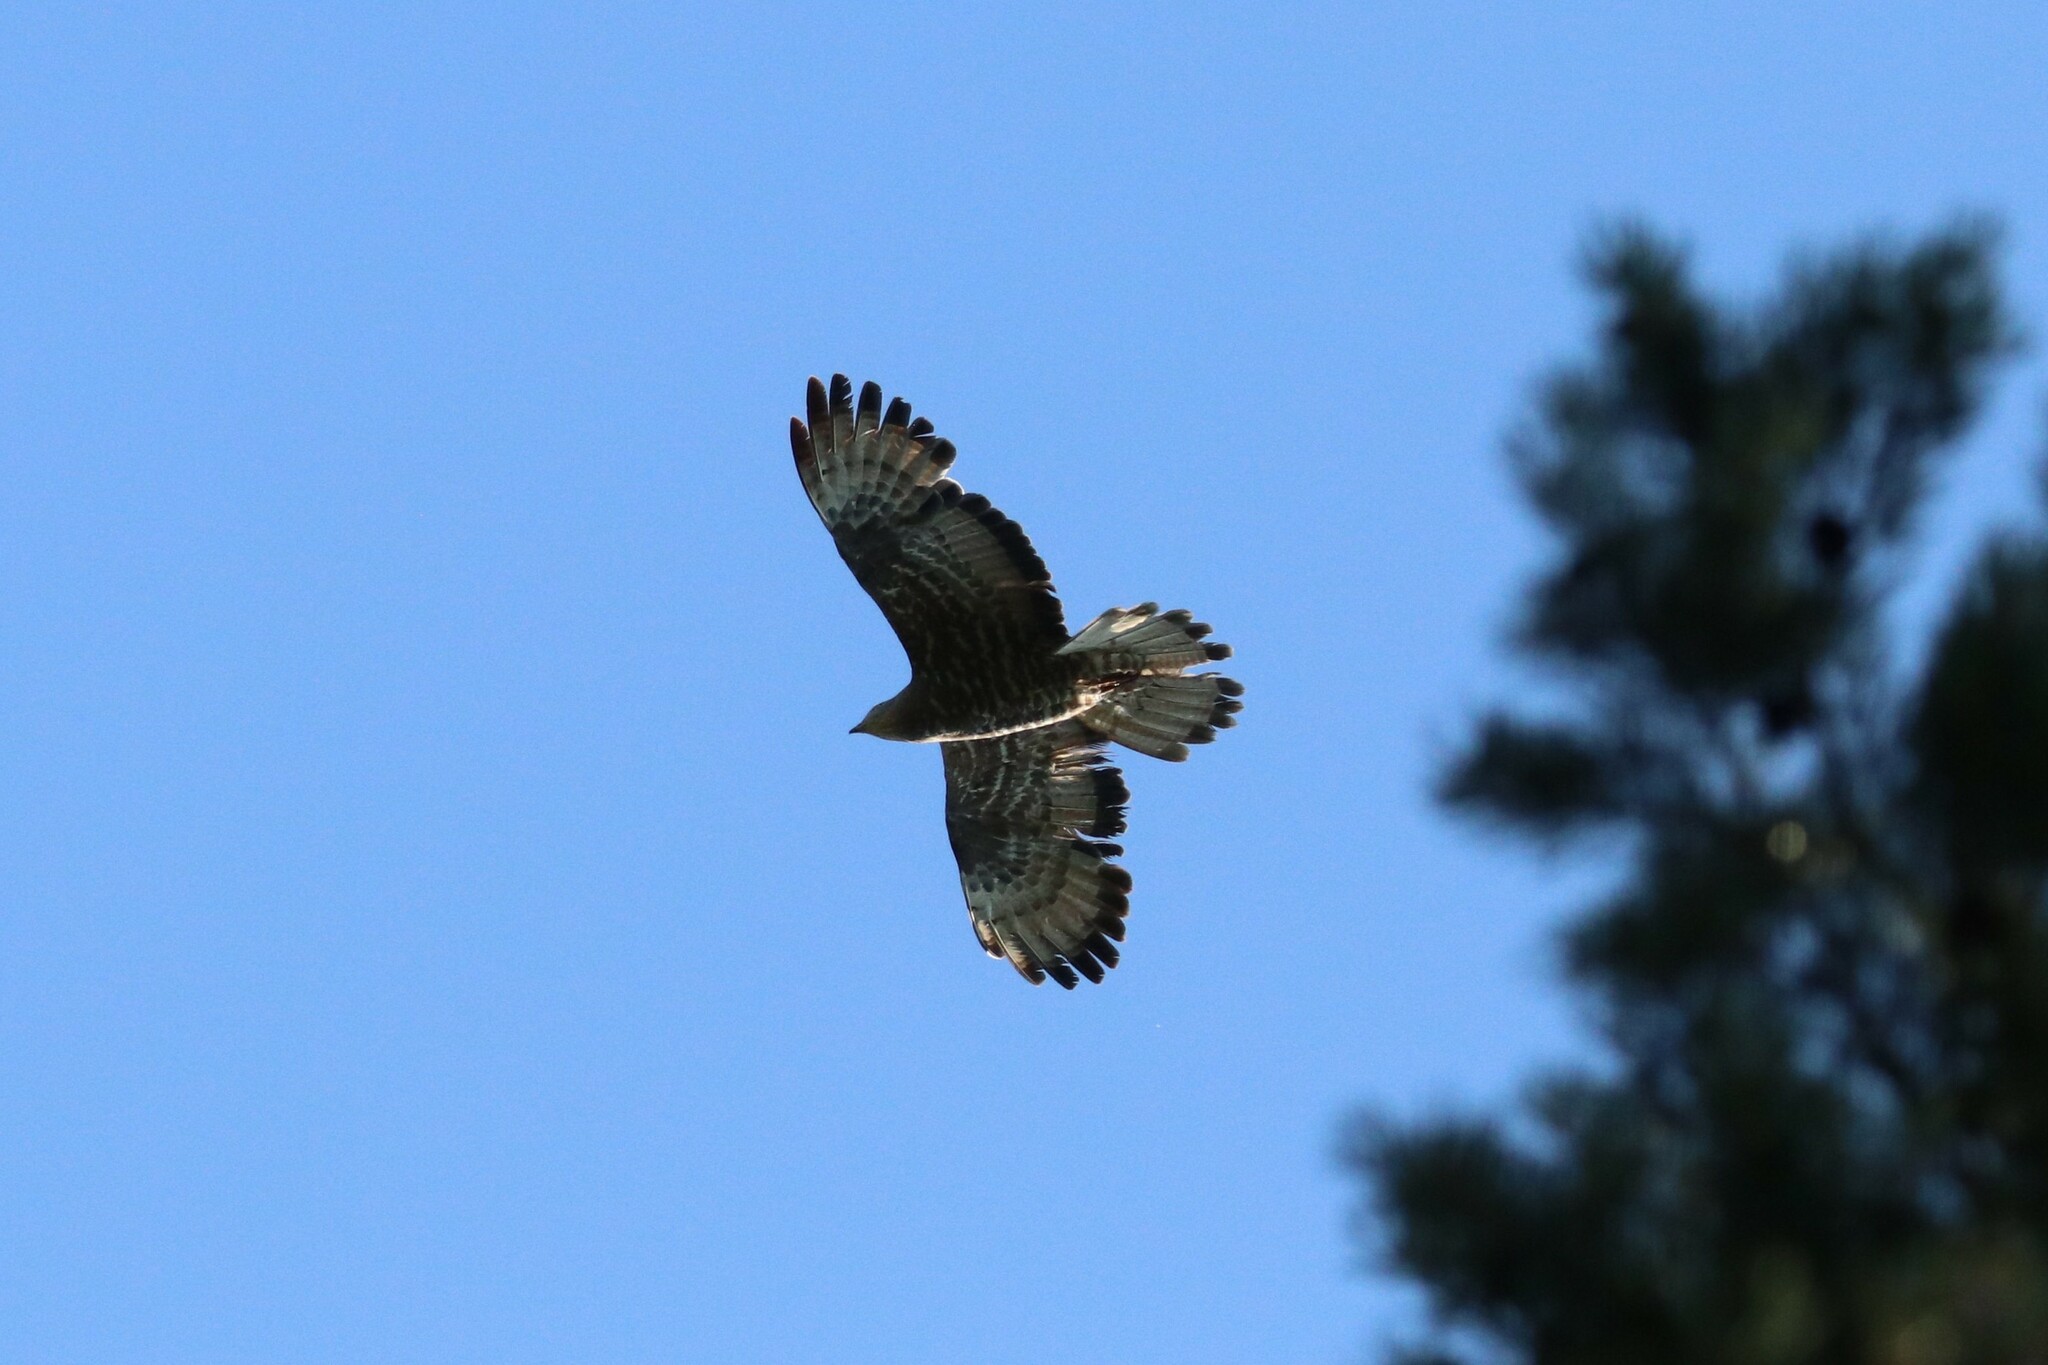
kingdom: Animalia
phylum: Chordata
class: Aves
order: Accipitriformes
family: Accipitridae
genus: Pernis
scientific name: Pernis apivorus
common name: European honey buzzard
